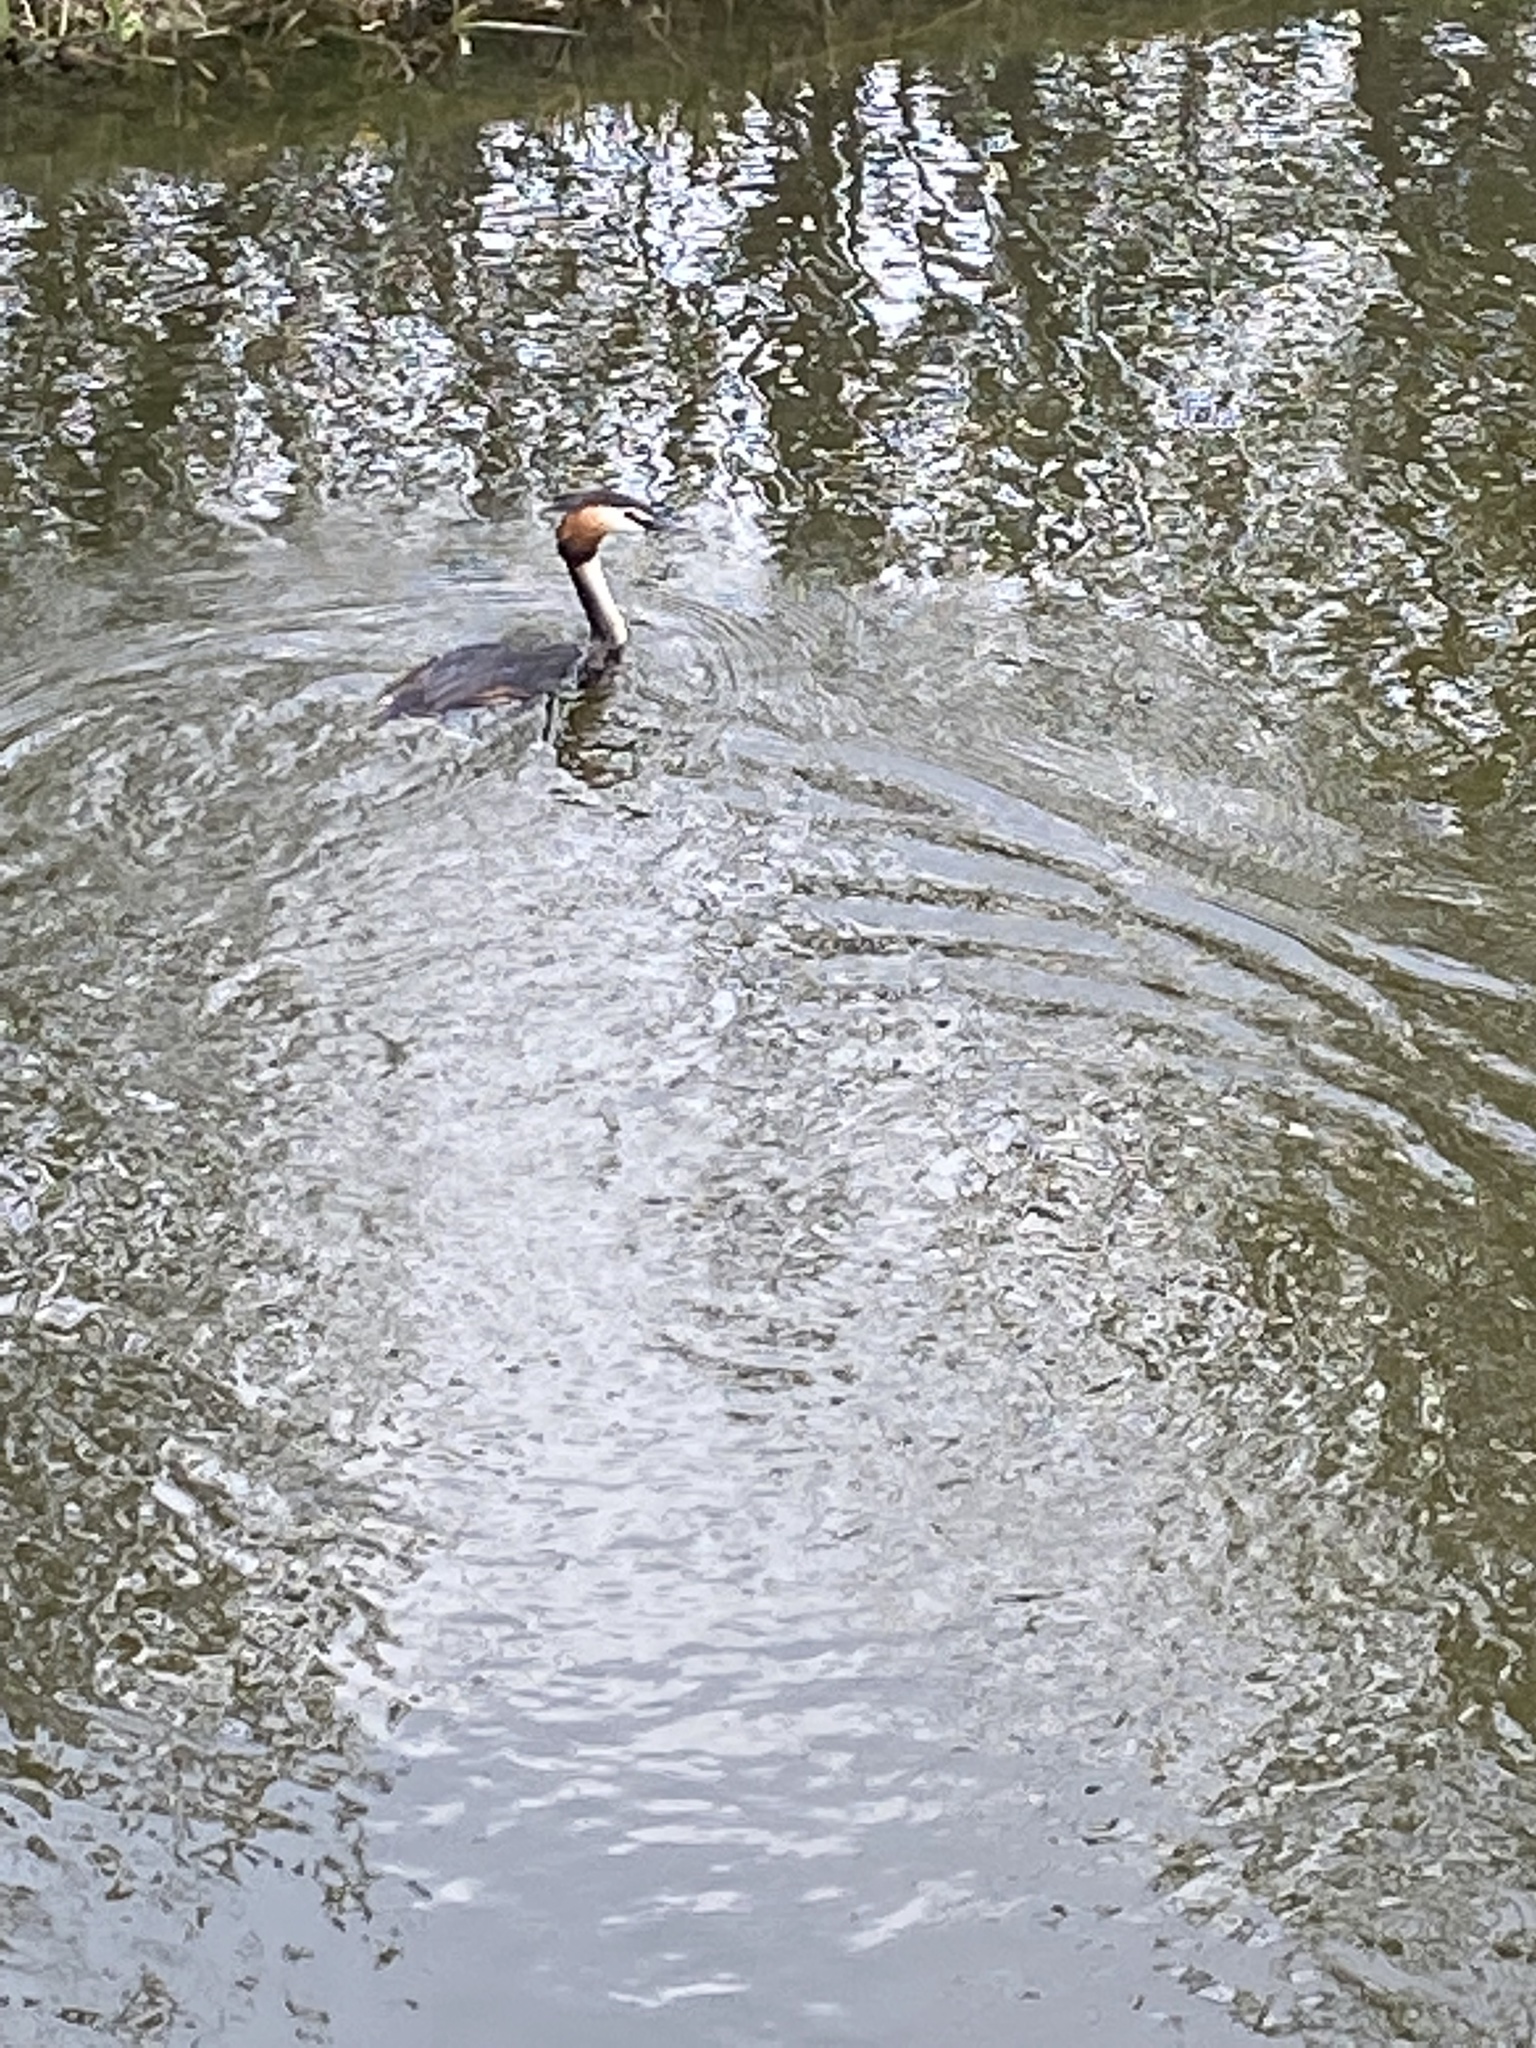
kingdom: Animalia
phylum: Chordata
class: Aves
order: Podicipediformes
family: Podicipedidae
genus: Podiceps
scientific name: Podiceps cristatus
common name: Great crested grebe
